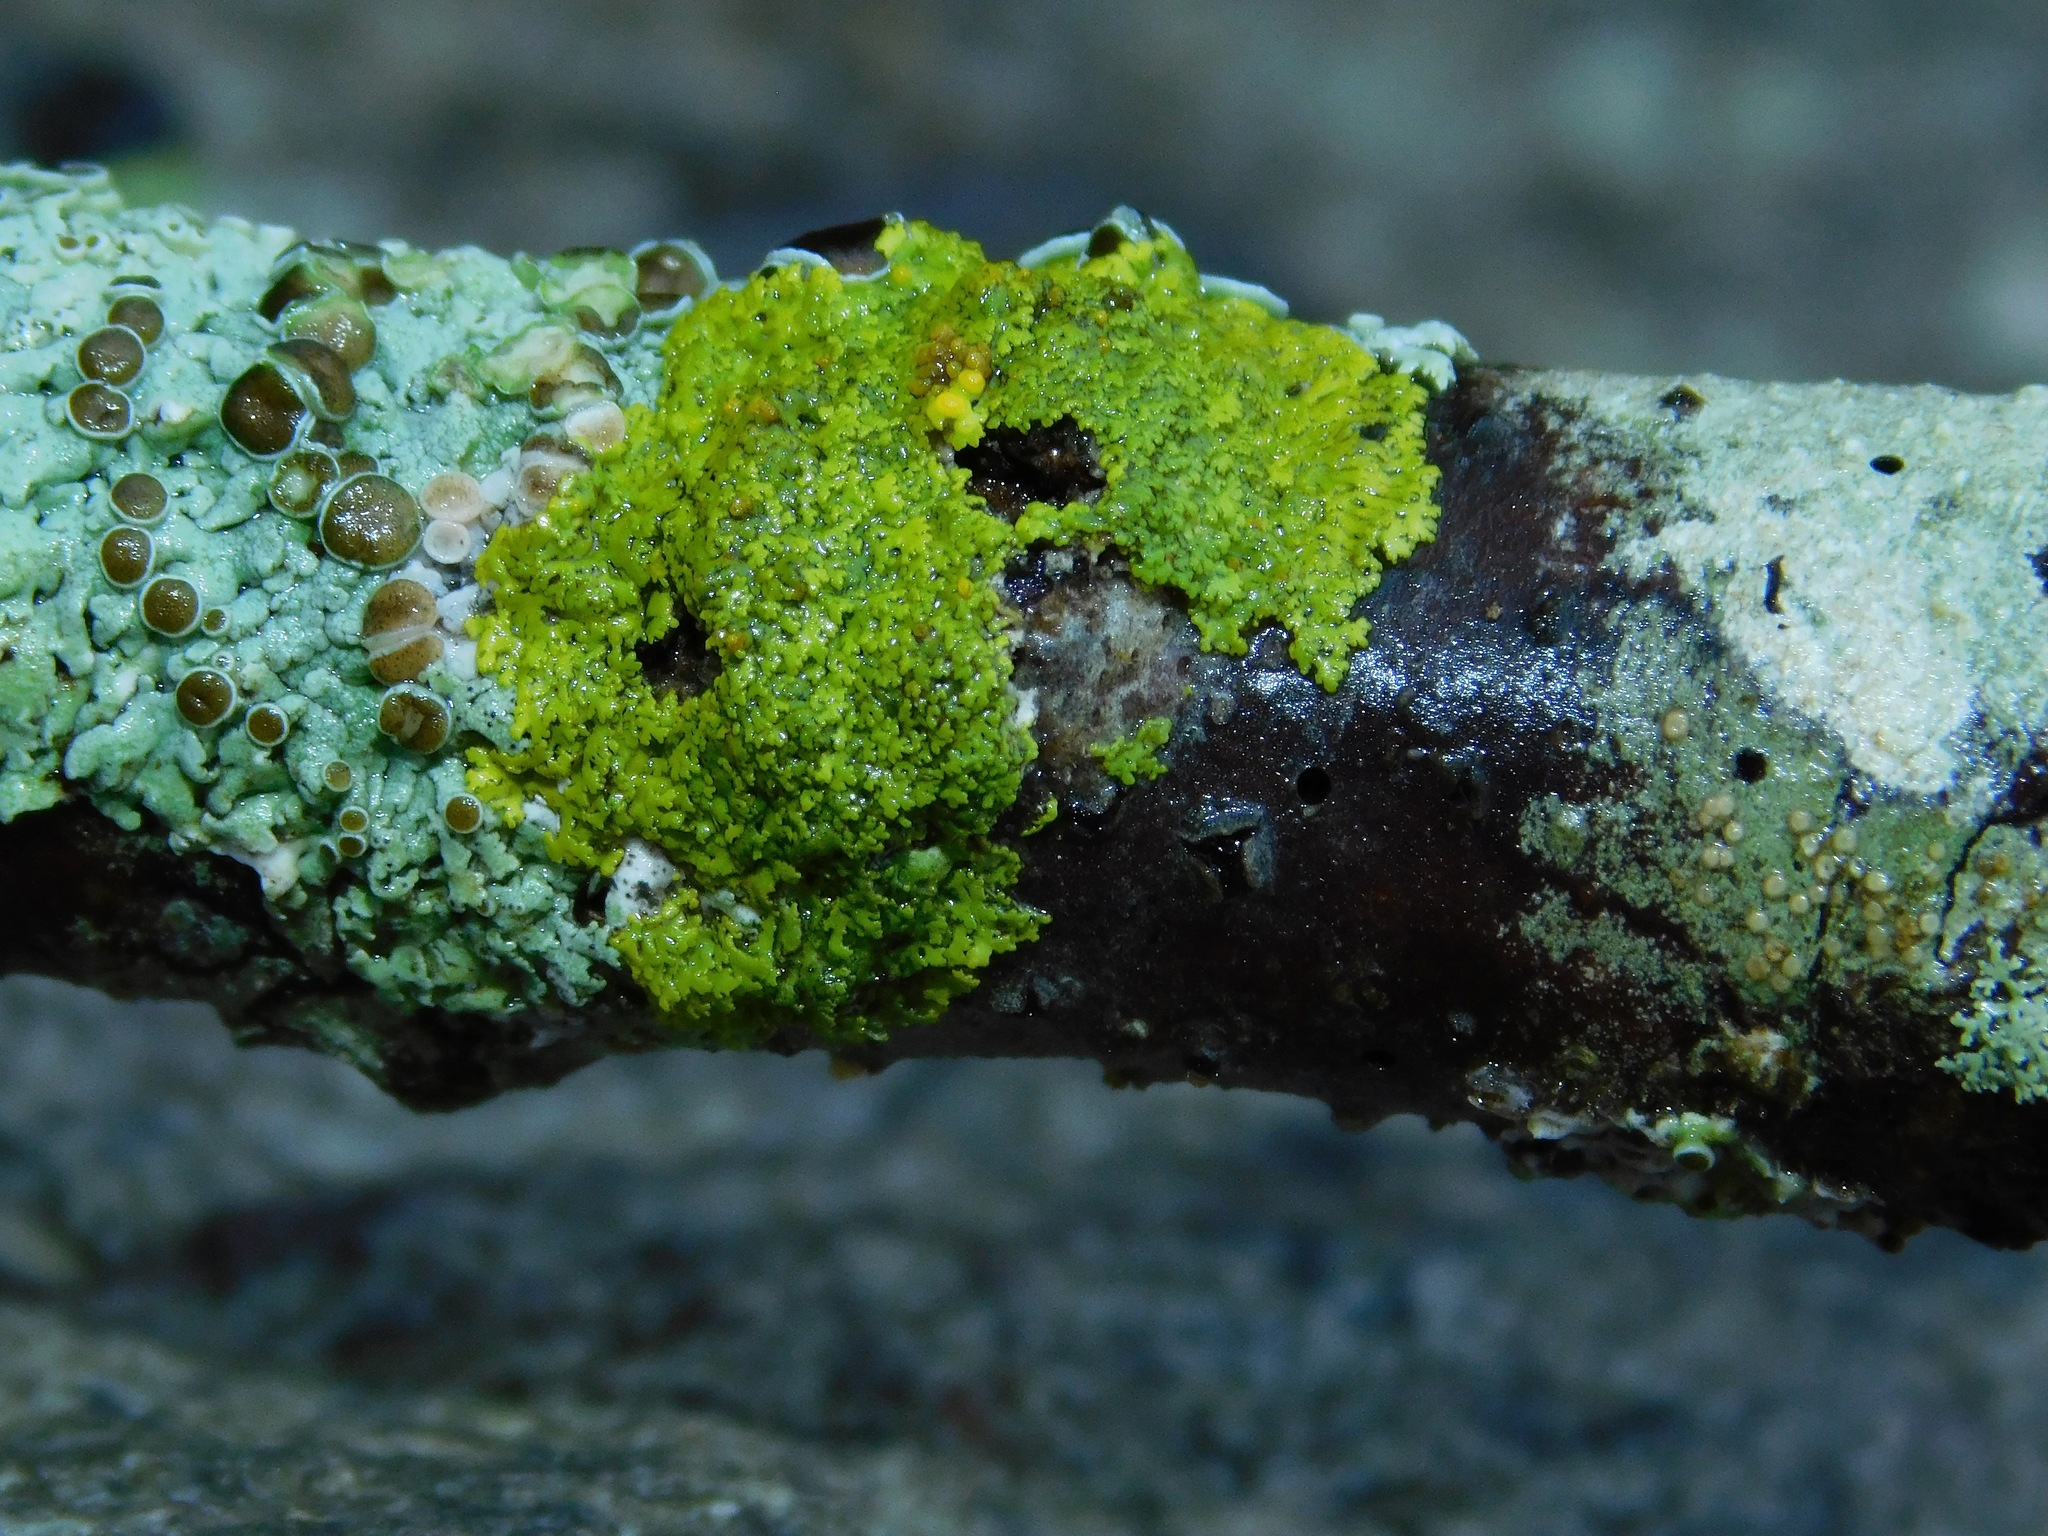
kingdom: Fungi
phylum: Ascomycota
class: Candelariomycetes
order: Candelariales
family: Candelariaceae
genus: Candelaria
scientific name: Candelaria fibrosa
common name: Fringed candleflame lichen
